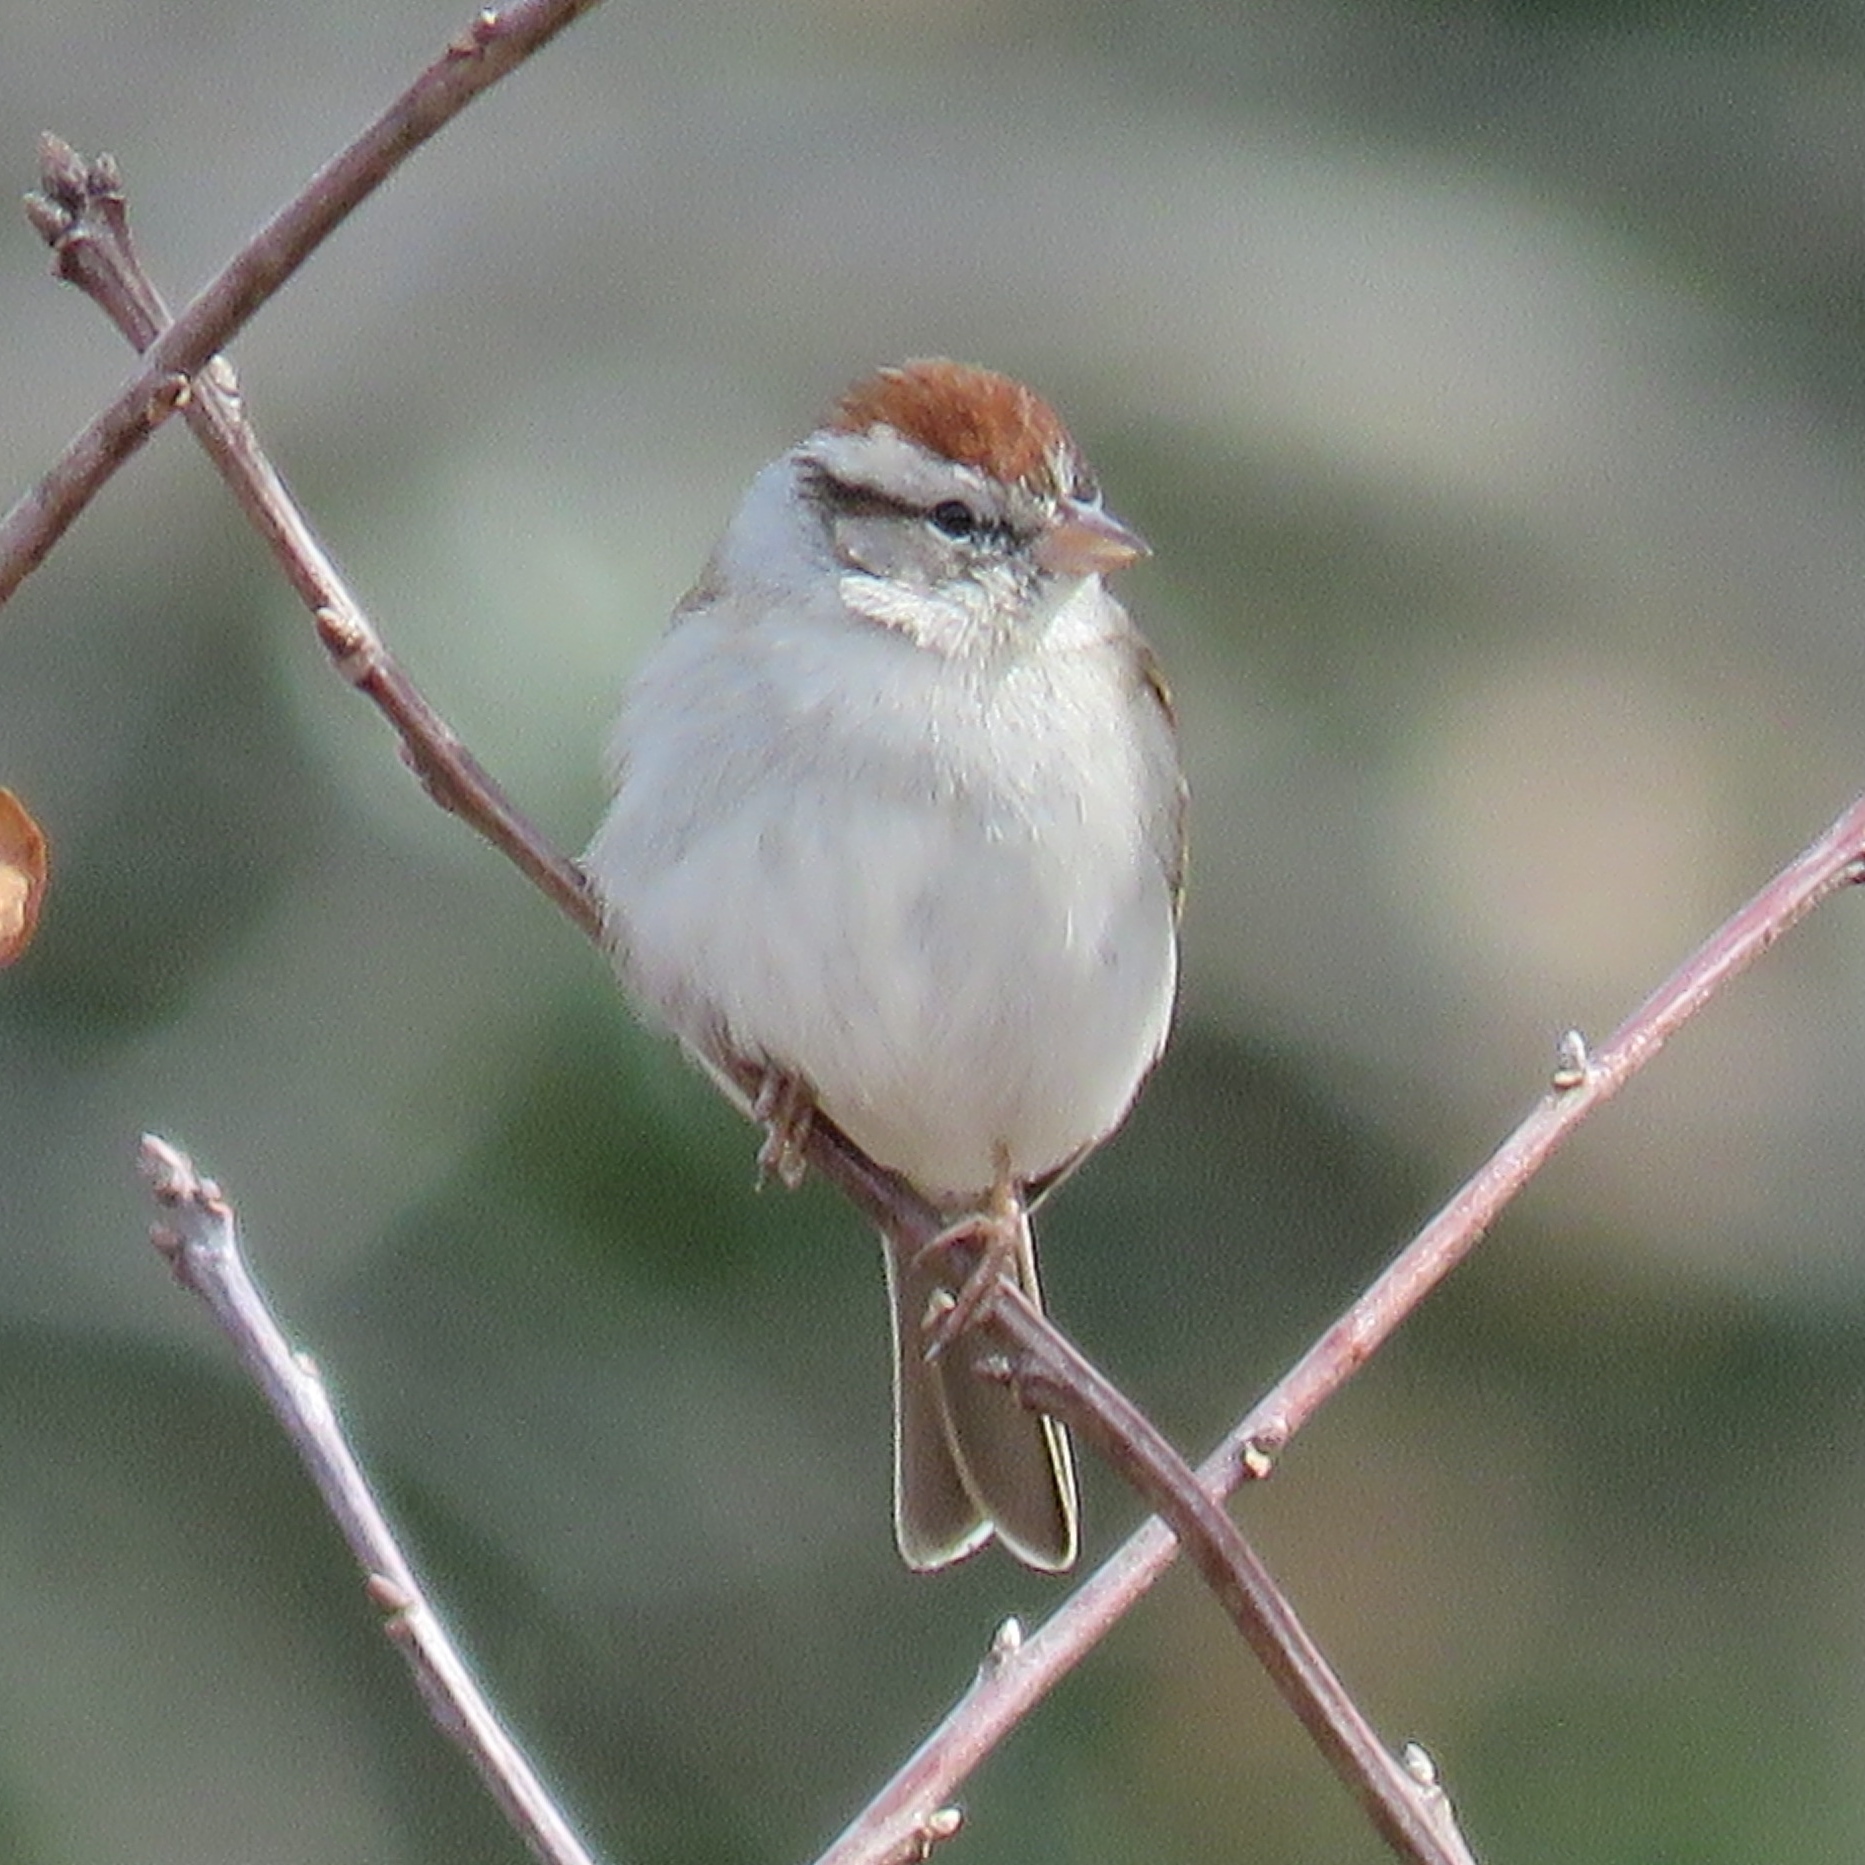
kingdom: Animalia
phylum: Chordata
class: Aves
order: Passeriformes
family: Passerellidae
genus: Spizella
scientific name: Spizella passerina
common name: Chipping sparrow
